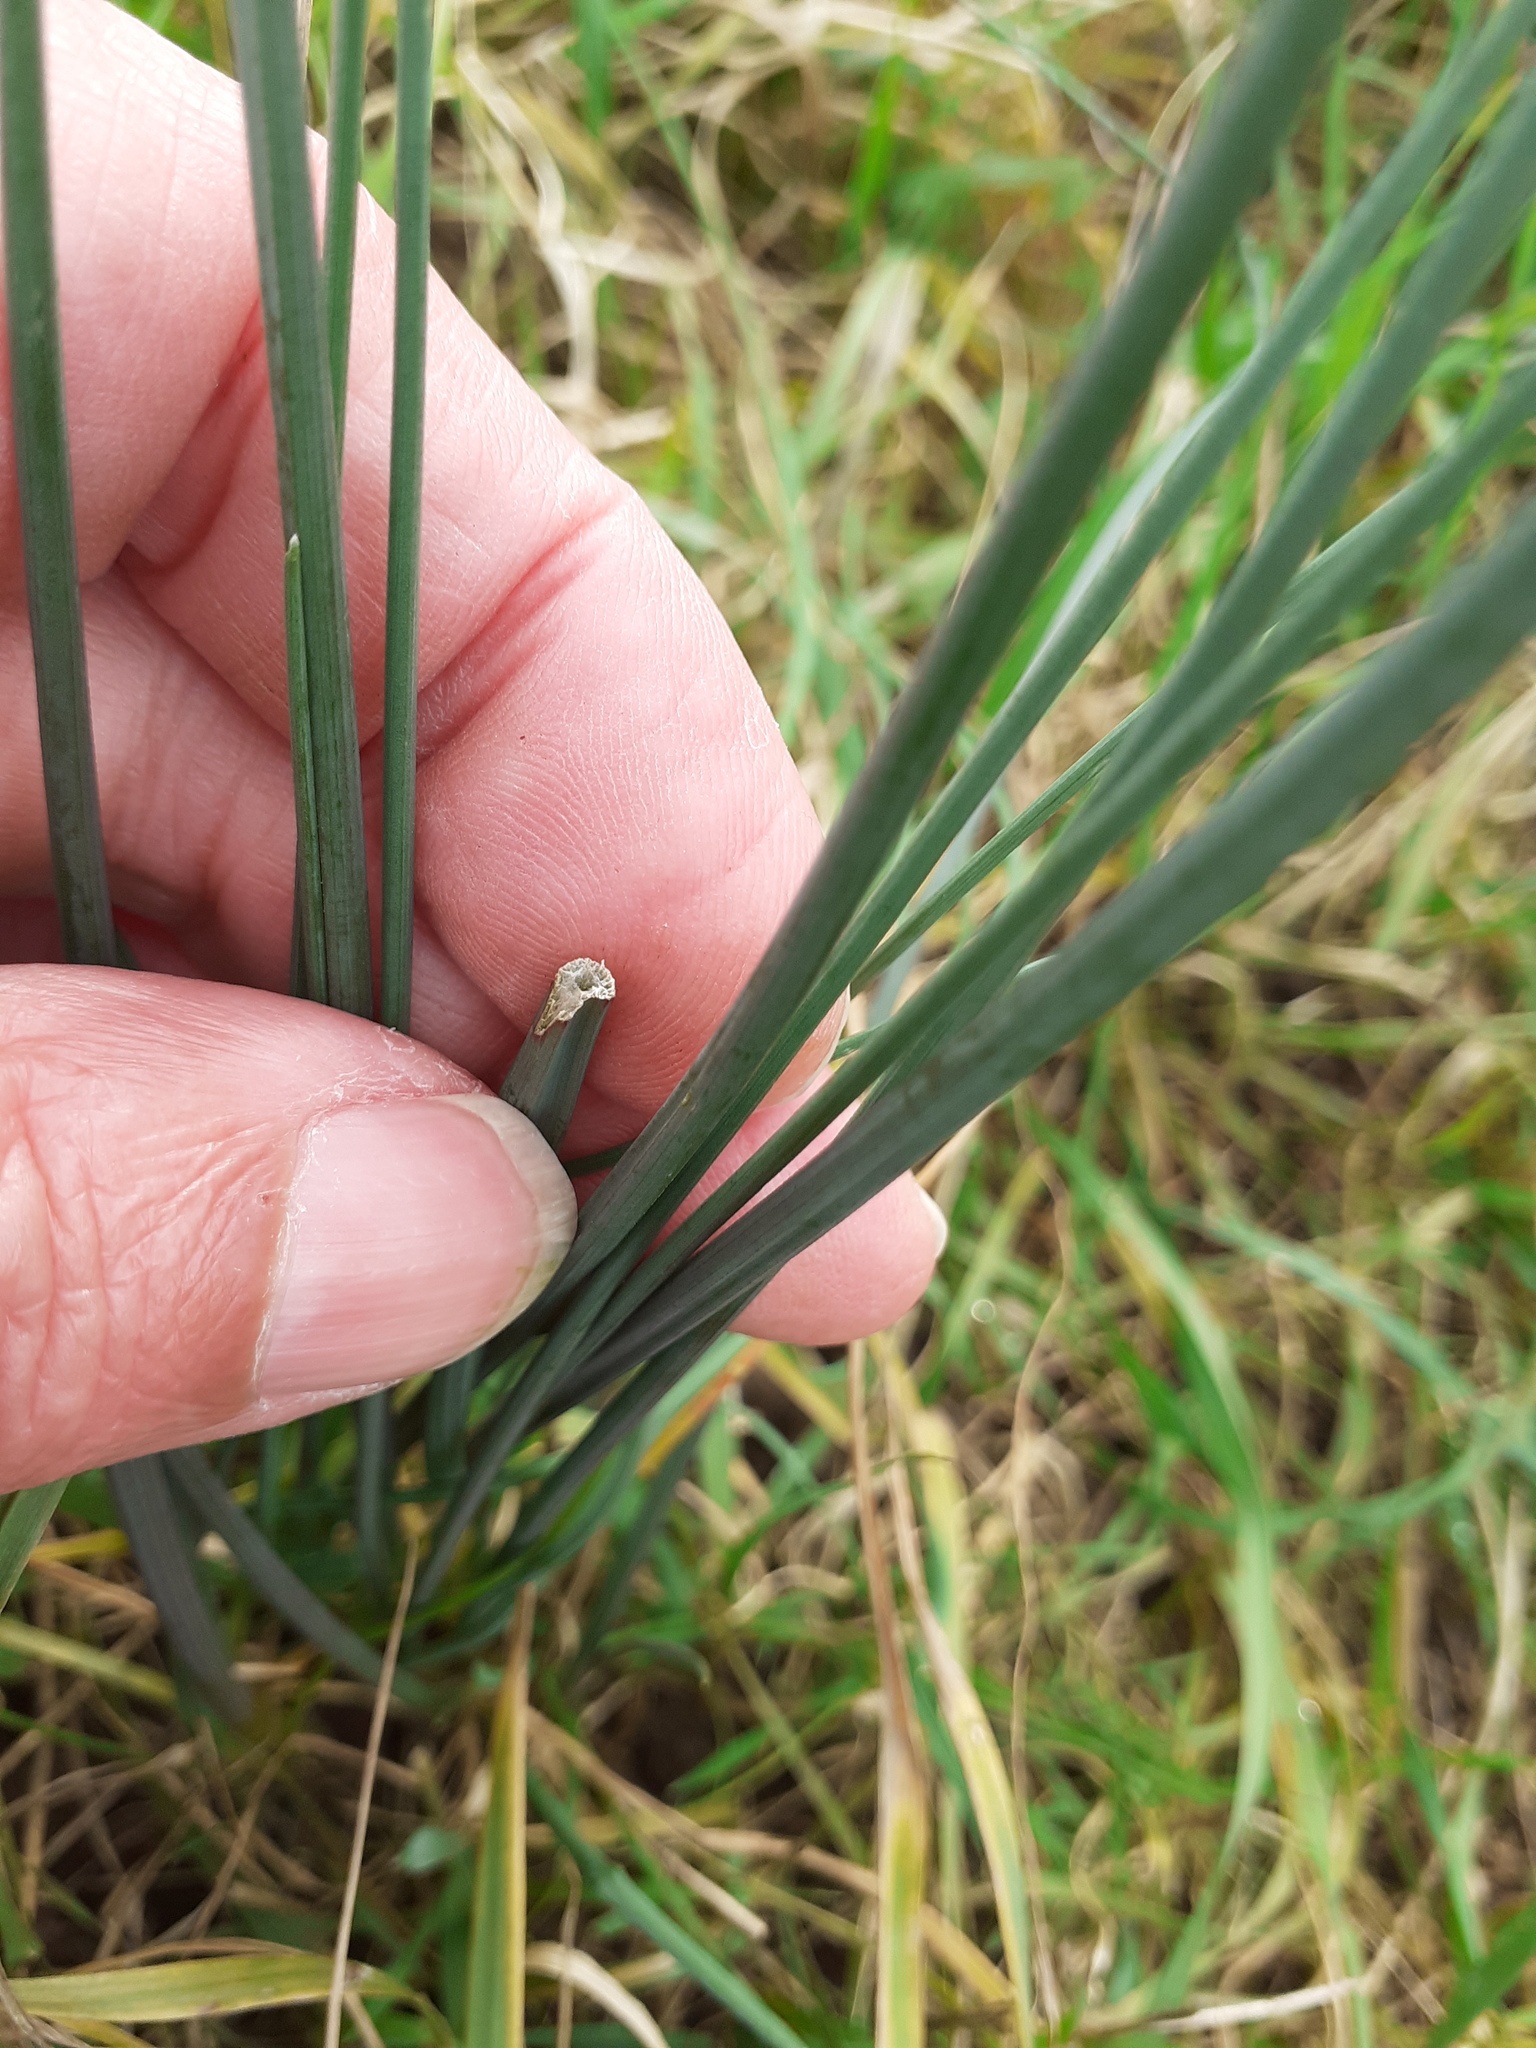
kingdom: Plantae
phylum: Tracheophyta
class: Liliopsida
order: Asparagales
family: Amaryllidaceae
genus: Allium
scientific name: Allium vineale
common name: Crow garlic
